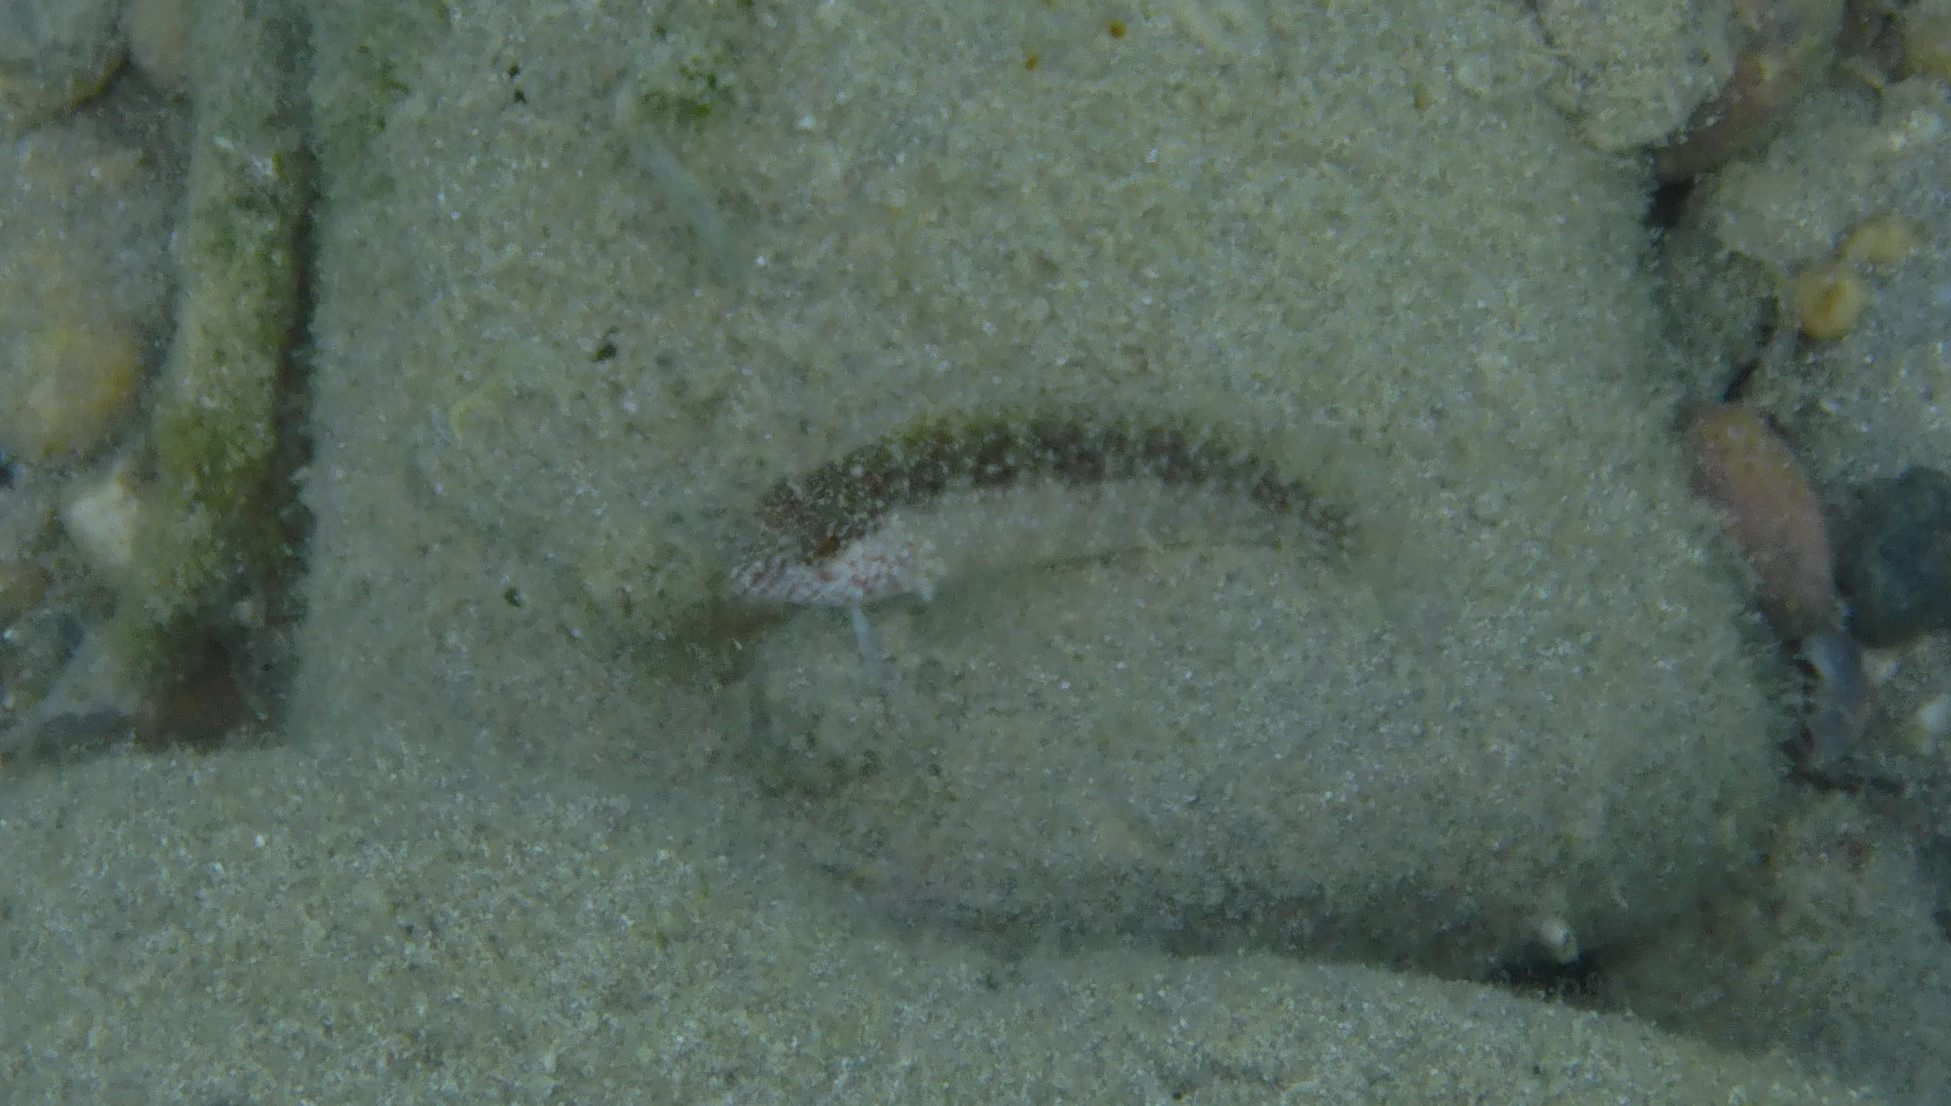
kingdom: Animalia
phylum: Chordata
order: Perciformes
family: Labrisomidae
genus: Malacoctenus
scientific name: Malacoctenus macropus
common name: Rosy blenny
